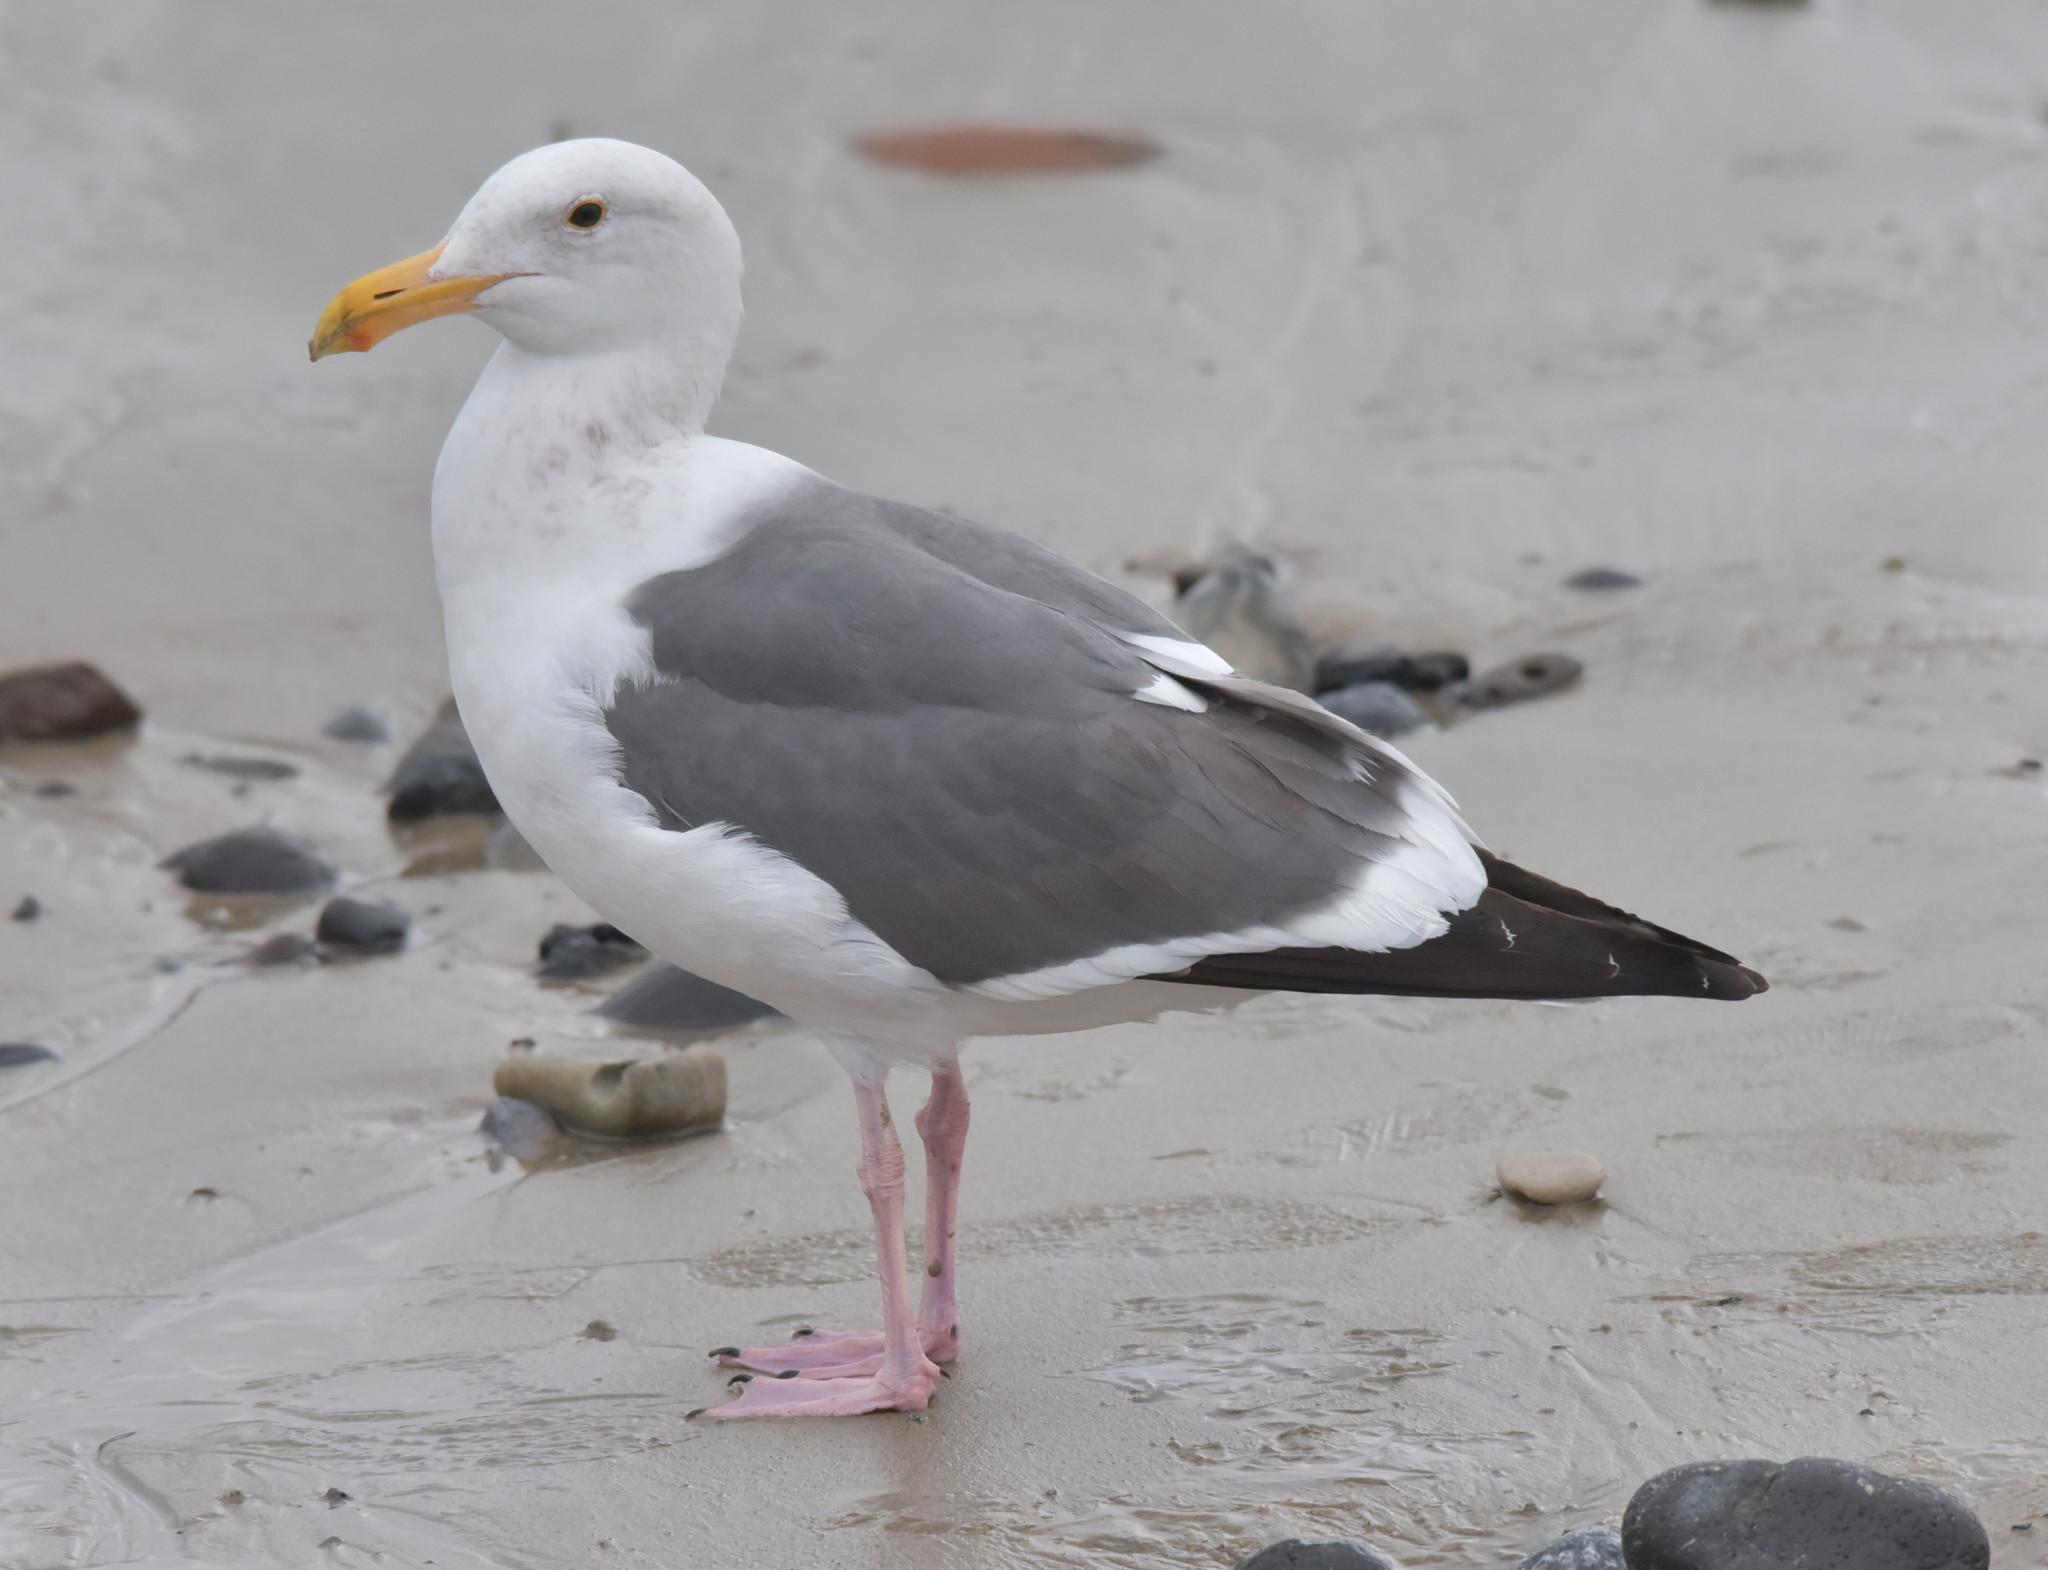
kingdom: Animalia
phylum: Chordata
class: Aves
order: Charadriiformes
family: Laridae
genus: Larus
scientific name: Larus occidentalis
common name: Western gull
